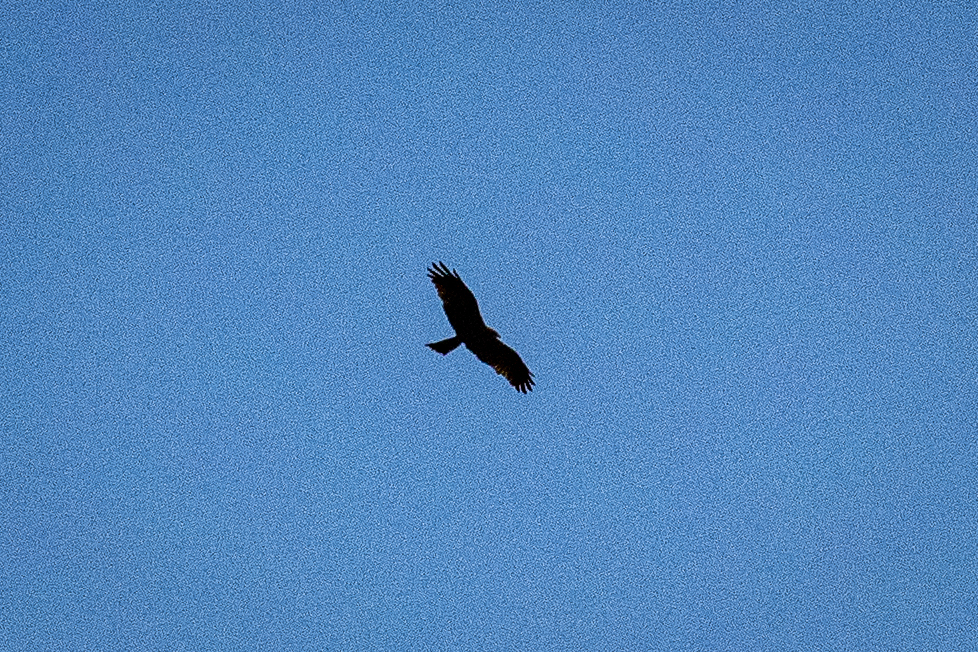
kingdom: Animalia
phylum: Chordata
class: Aves
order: Accipitriformes
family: Accipitridae
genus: Milvus
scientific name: Milvus migrans
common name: Black kite
